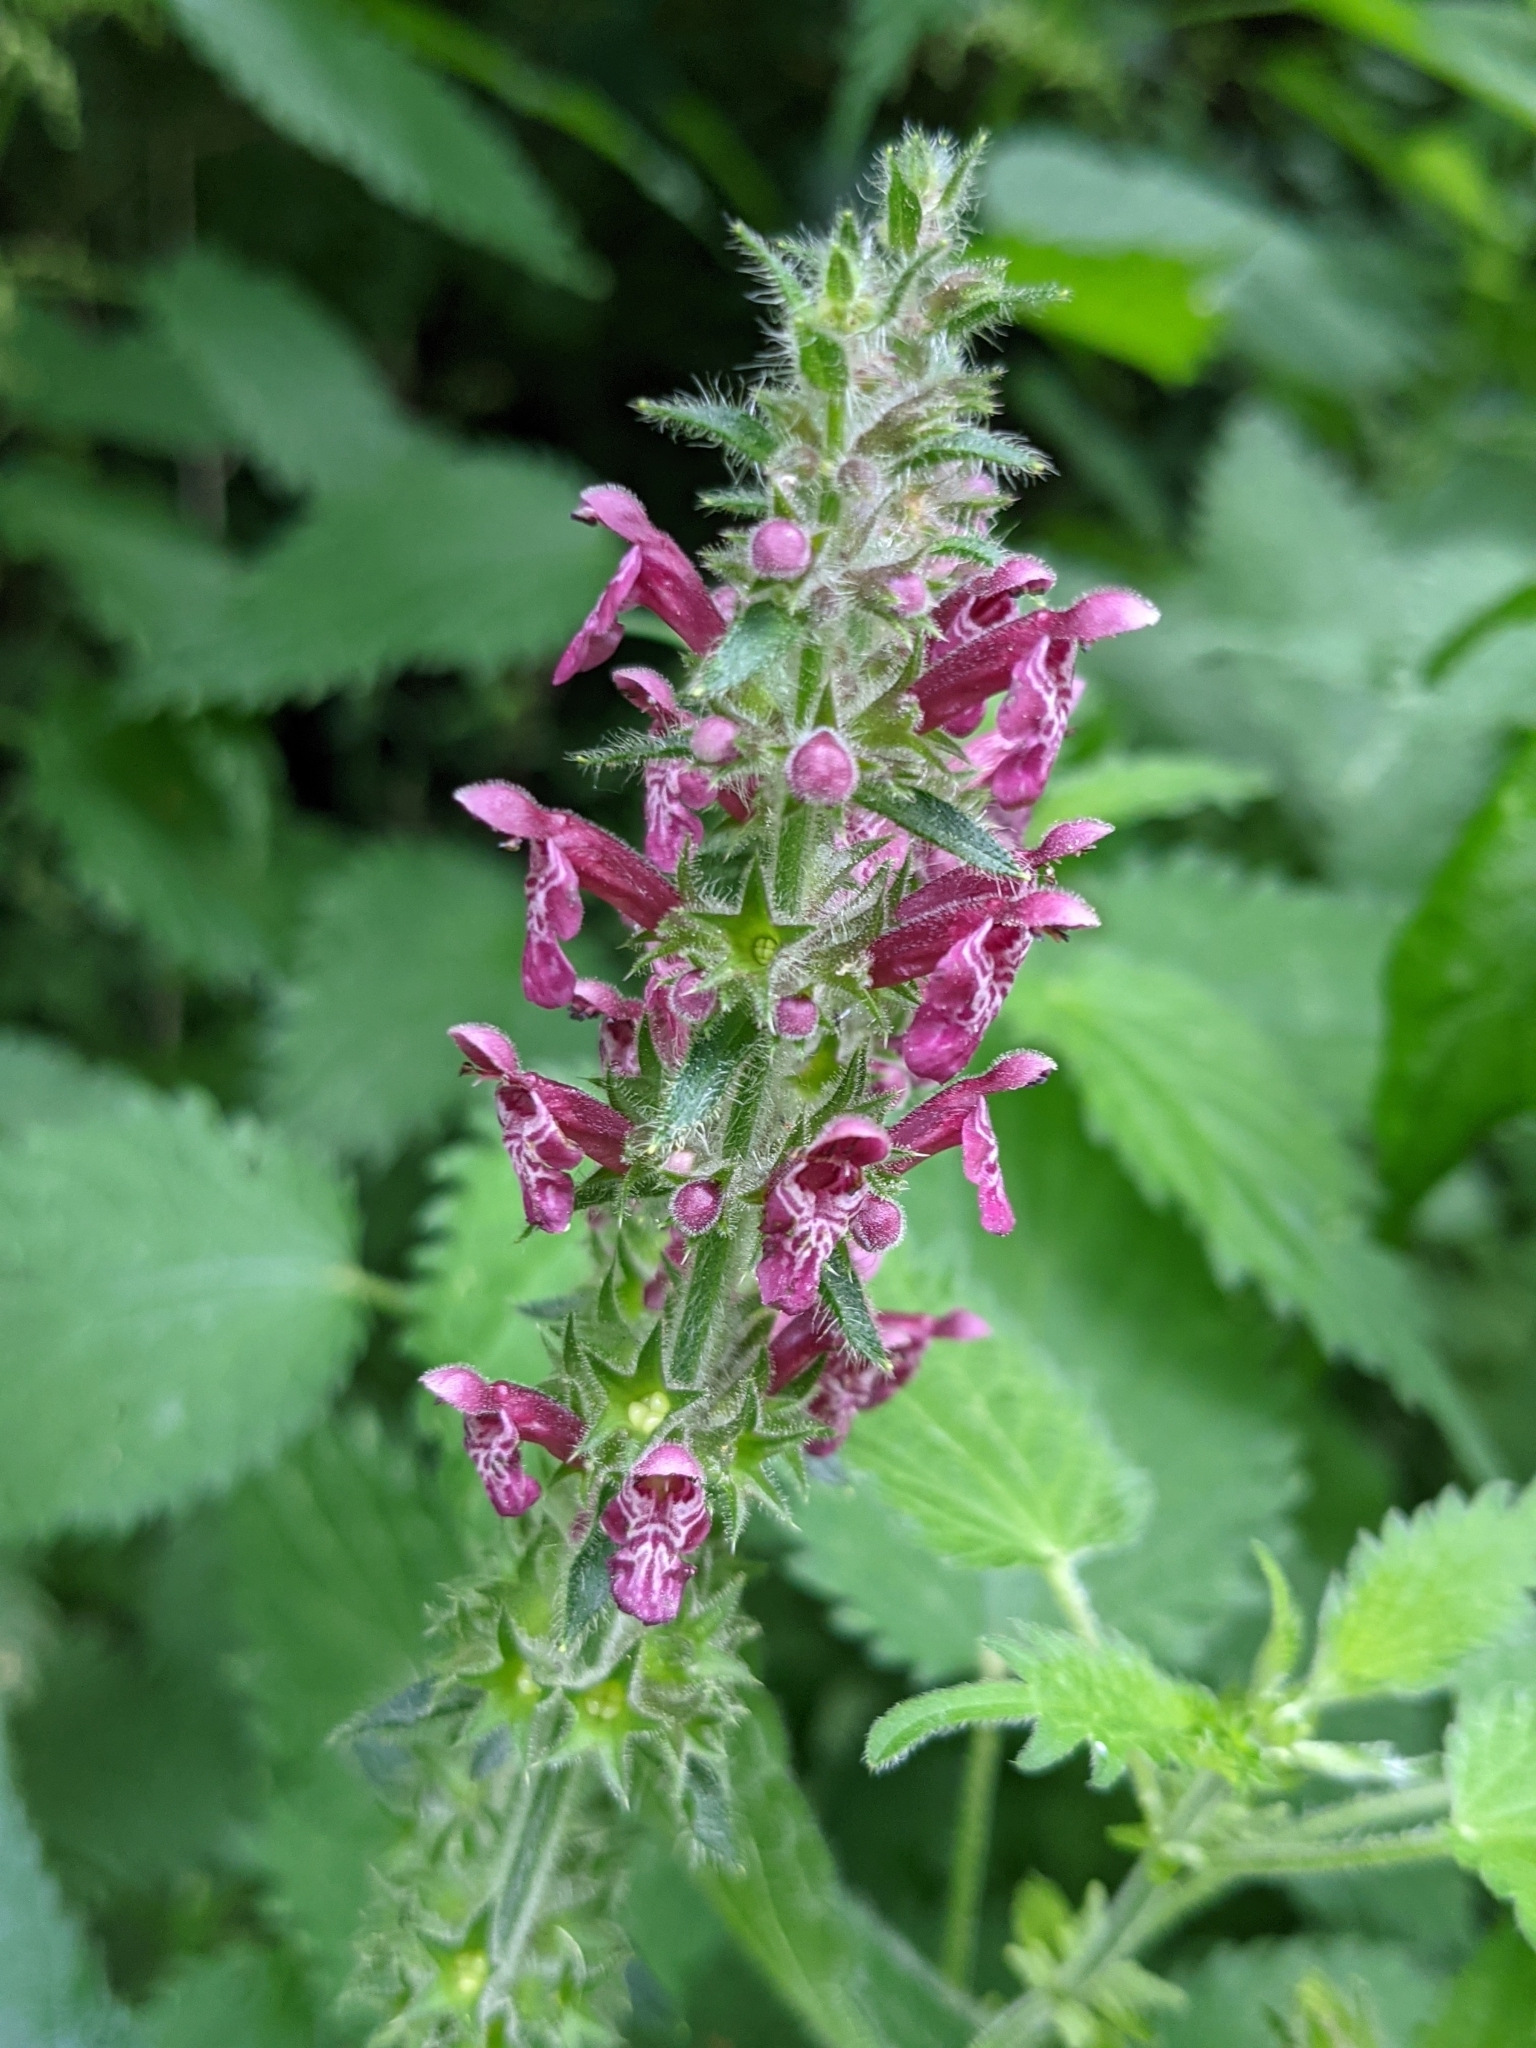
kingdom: Plantae
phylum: Tracheophyta
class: Magnoliopsida
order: Lamiales
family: Lamiaceae
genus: Stachys
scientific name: Stachys sylvatica
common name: Hedge woundwort
